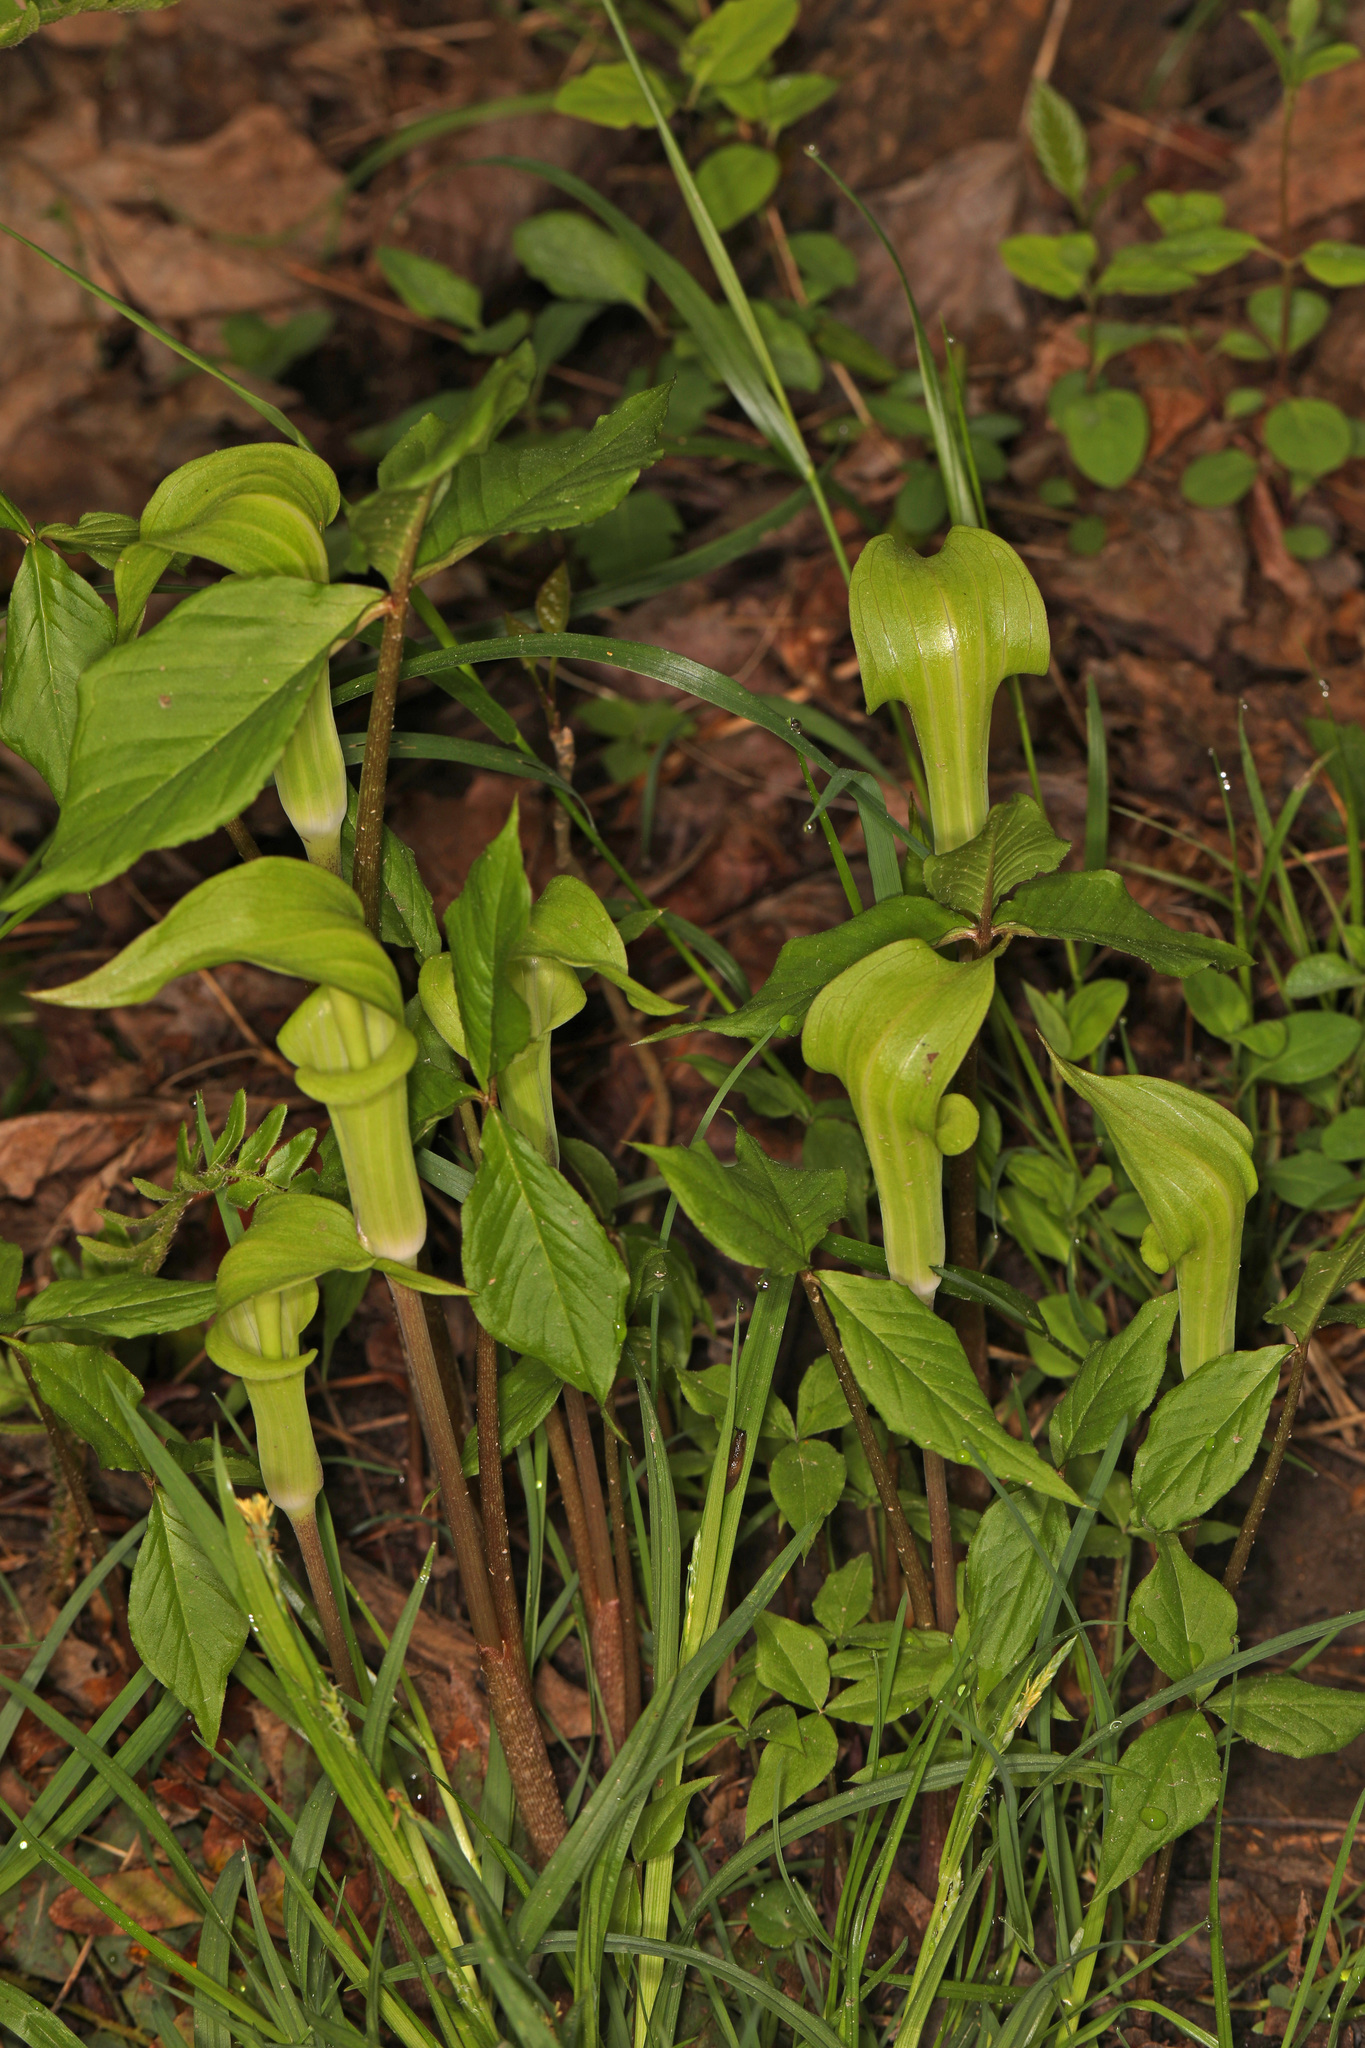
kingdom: Plantae
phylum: Tracheophyta
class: Liliopsida
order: Alismatales
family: Araceae
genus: Arisaema
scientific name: Arisaema triphyllum
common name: Jack-in-the-pulpit
